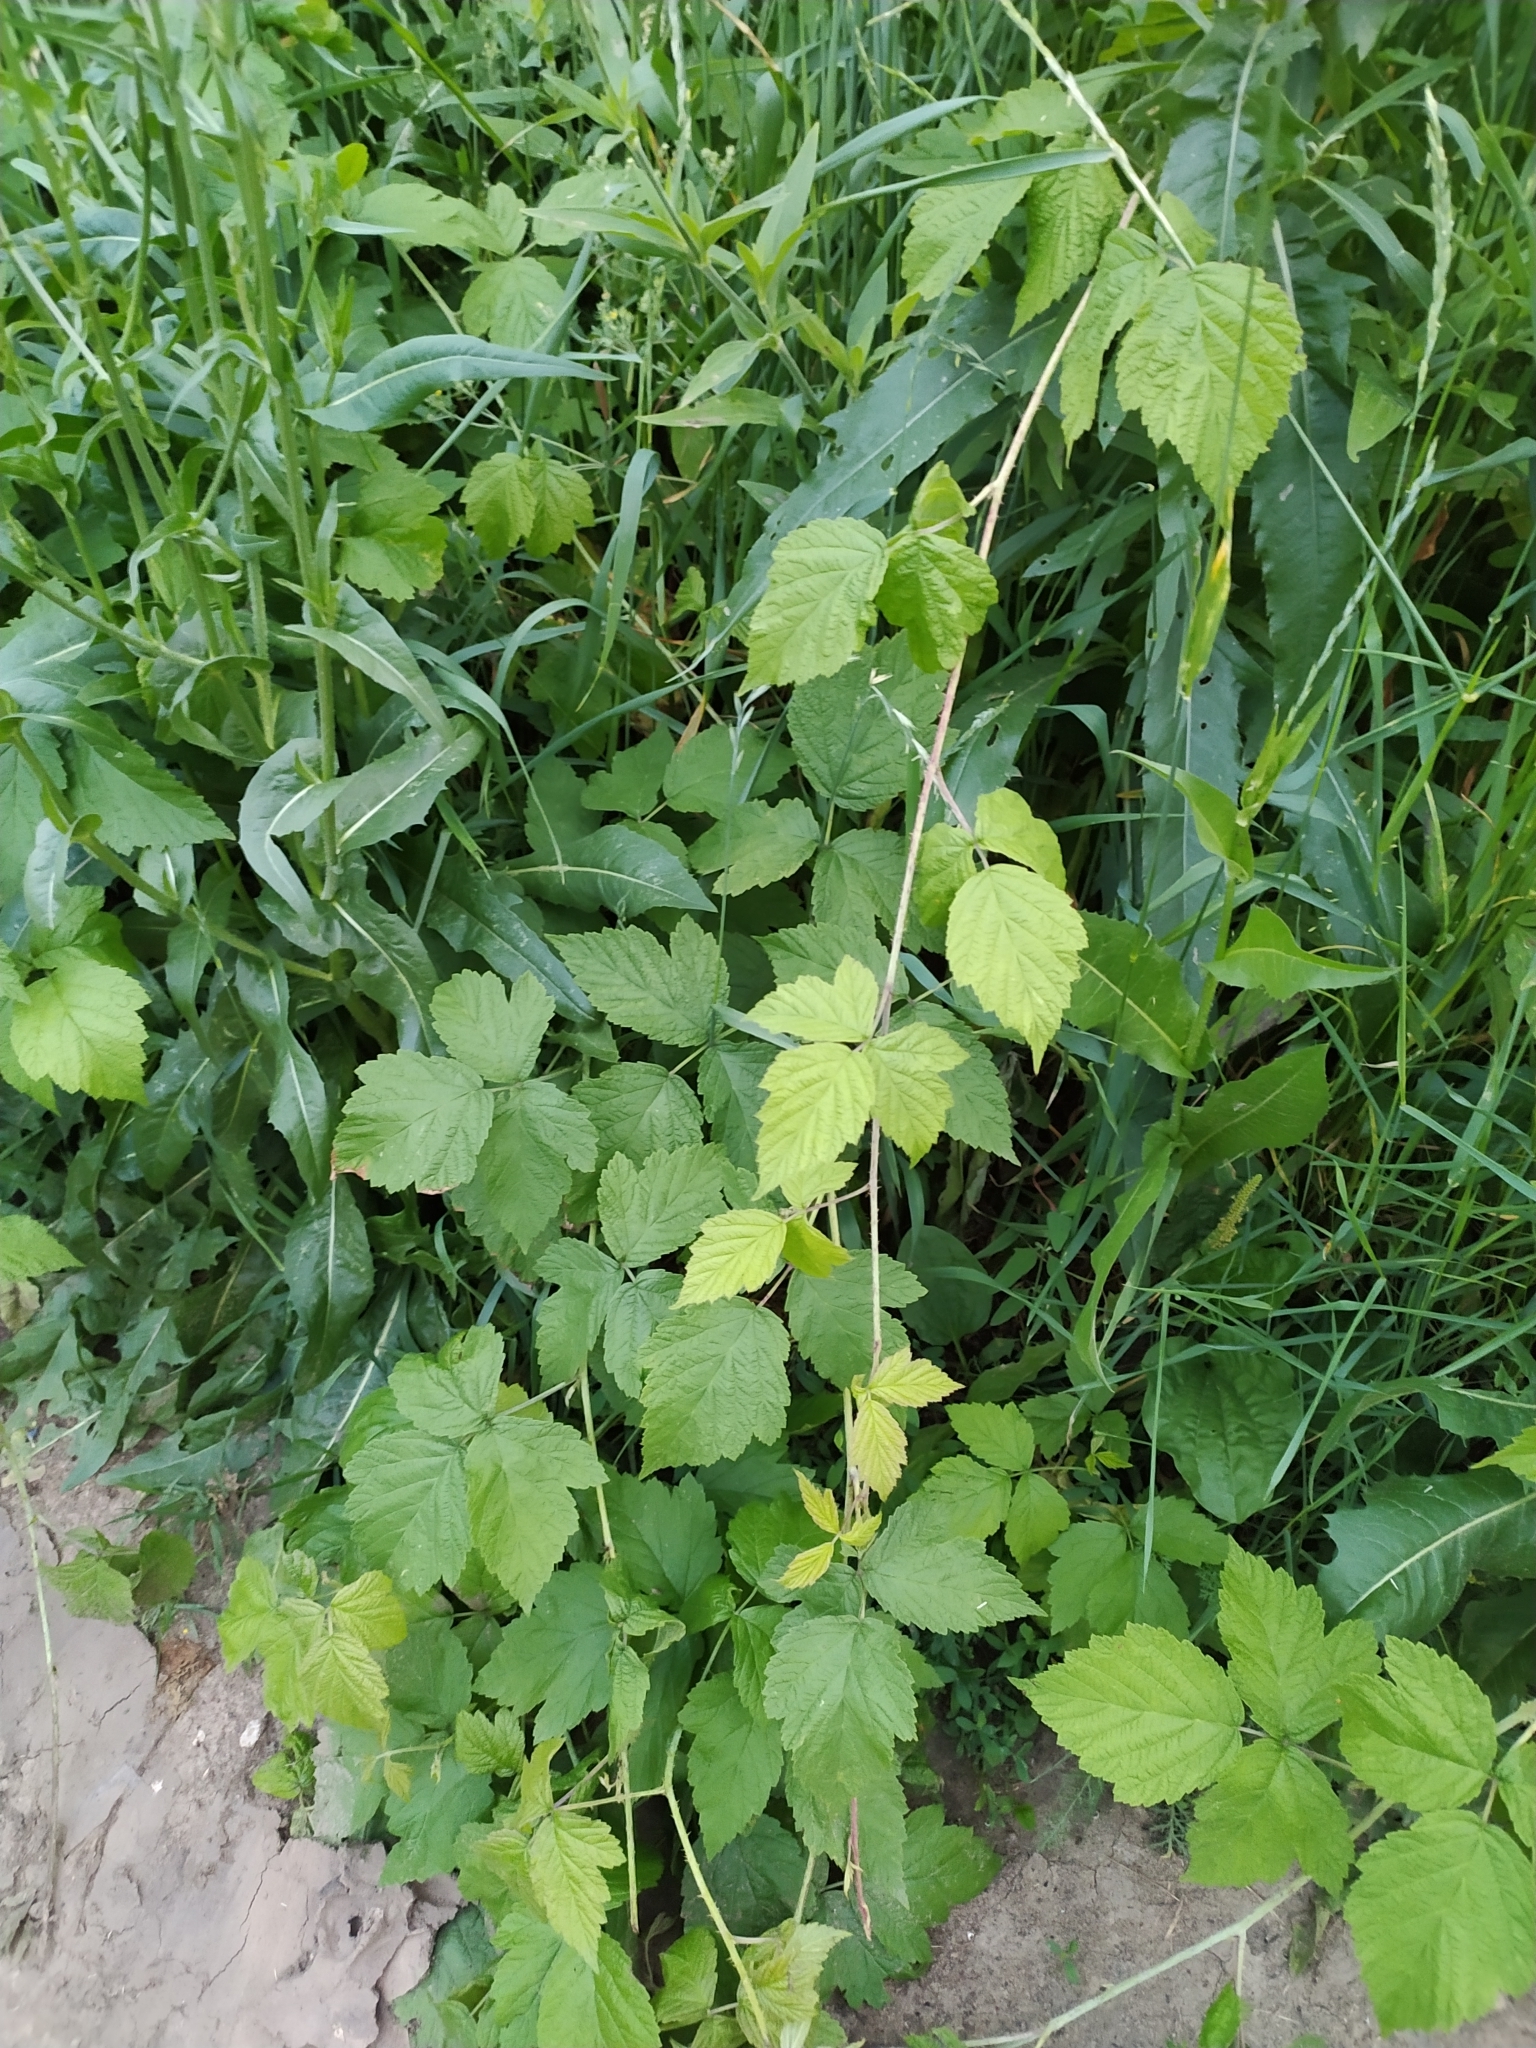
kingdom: Plantae
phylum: Tracheophyta
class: Magnoliopsida
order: Rosales
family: Rosaceae
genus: Rubus
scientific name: Rubus caesius
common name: Dewberry
